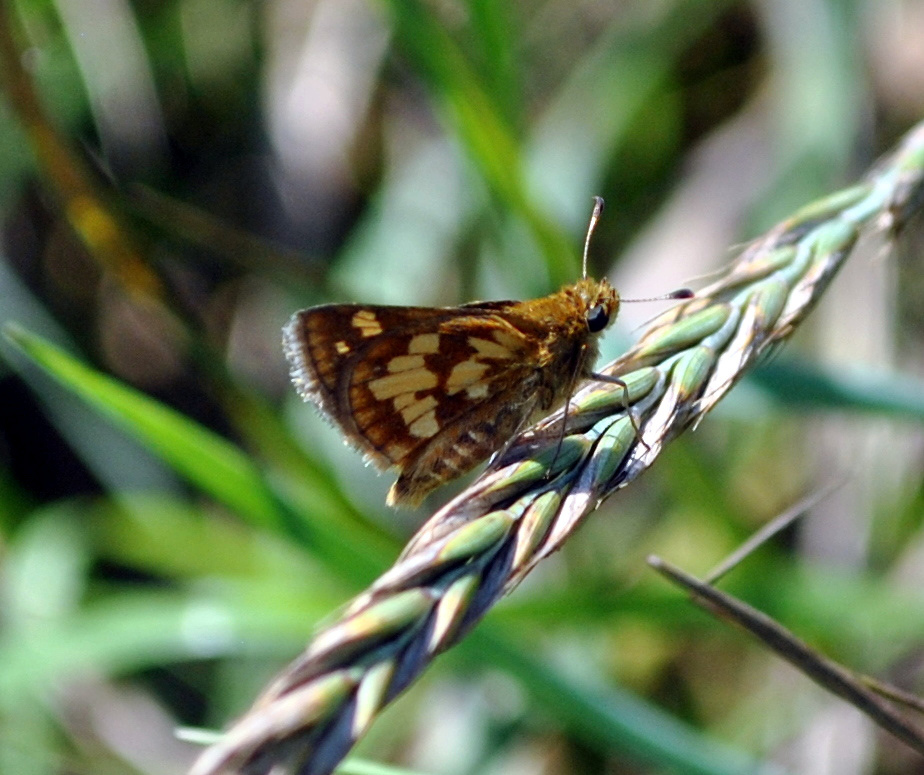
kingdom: Animalia
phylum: Arthropoda
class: Insecta
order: Lepidoptera
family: Hesperiidae
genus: Polites
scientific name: Polites coras
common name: Peck's skipper
